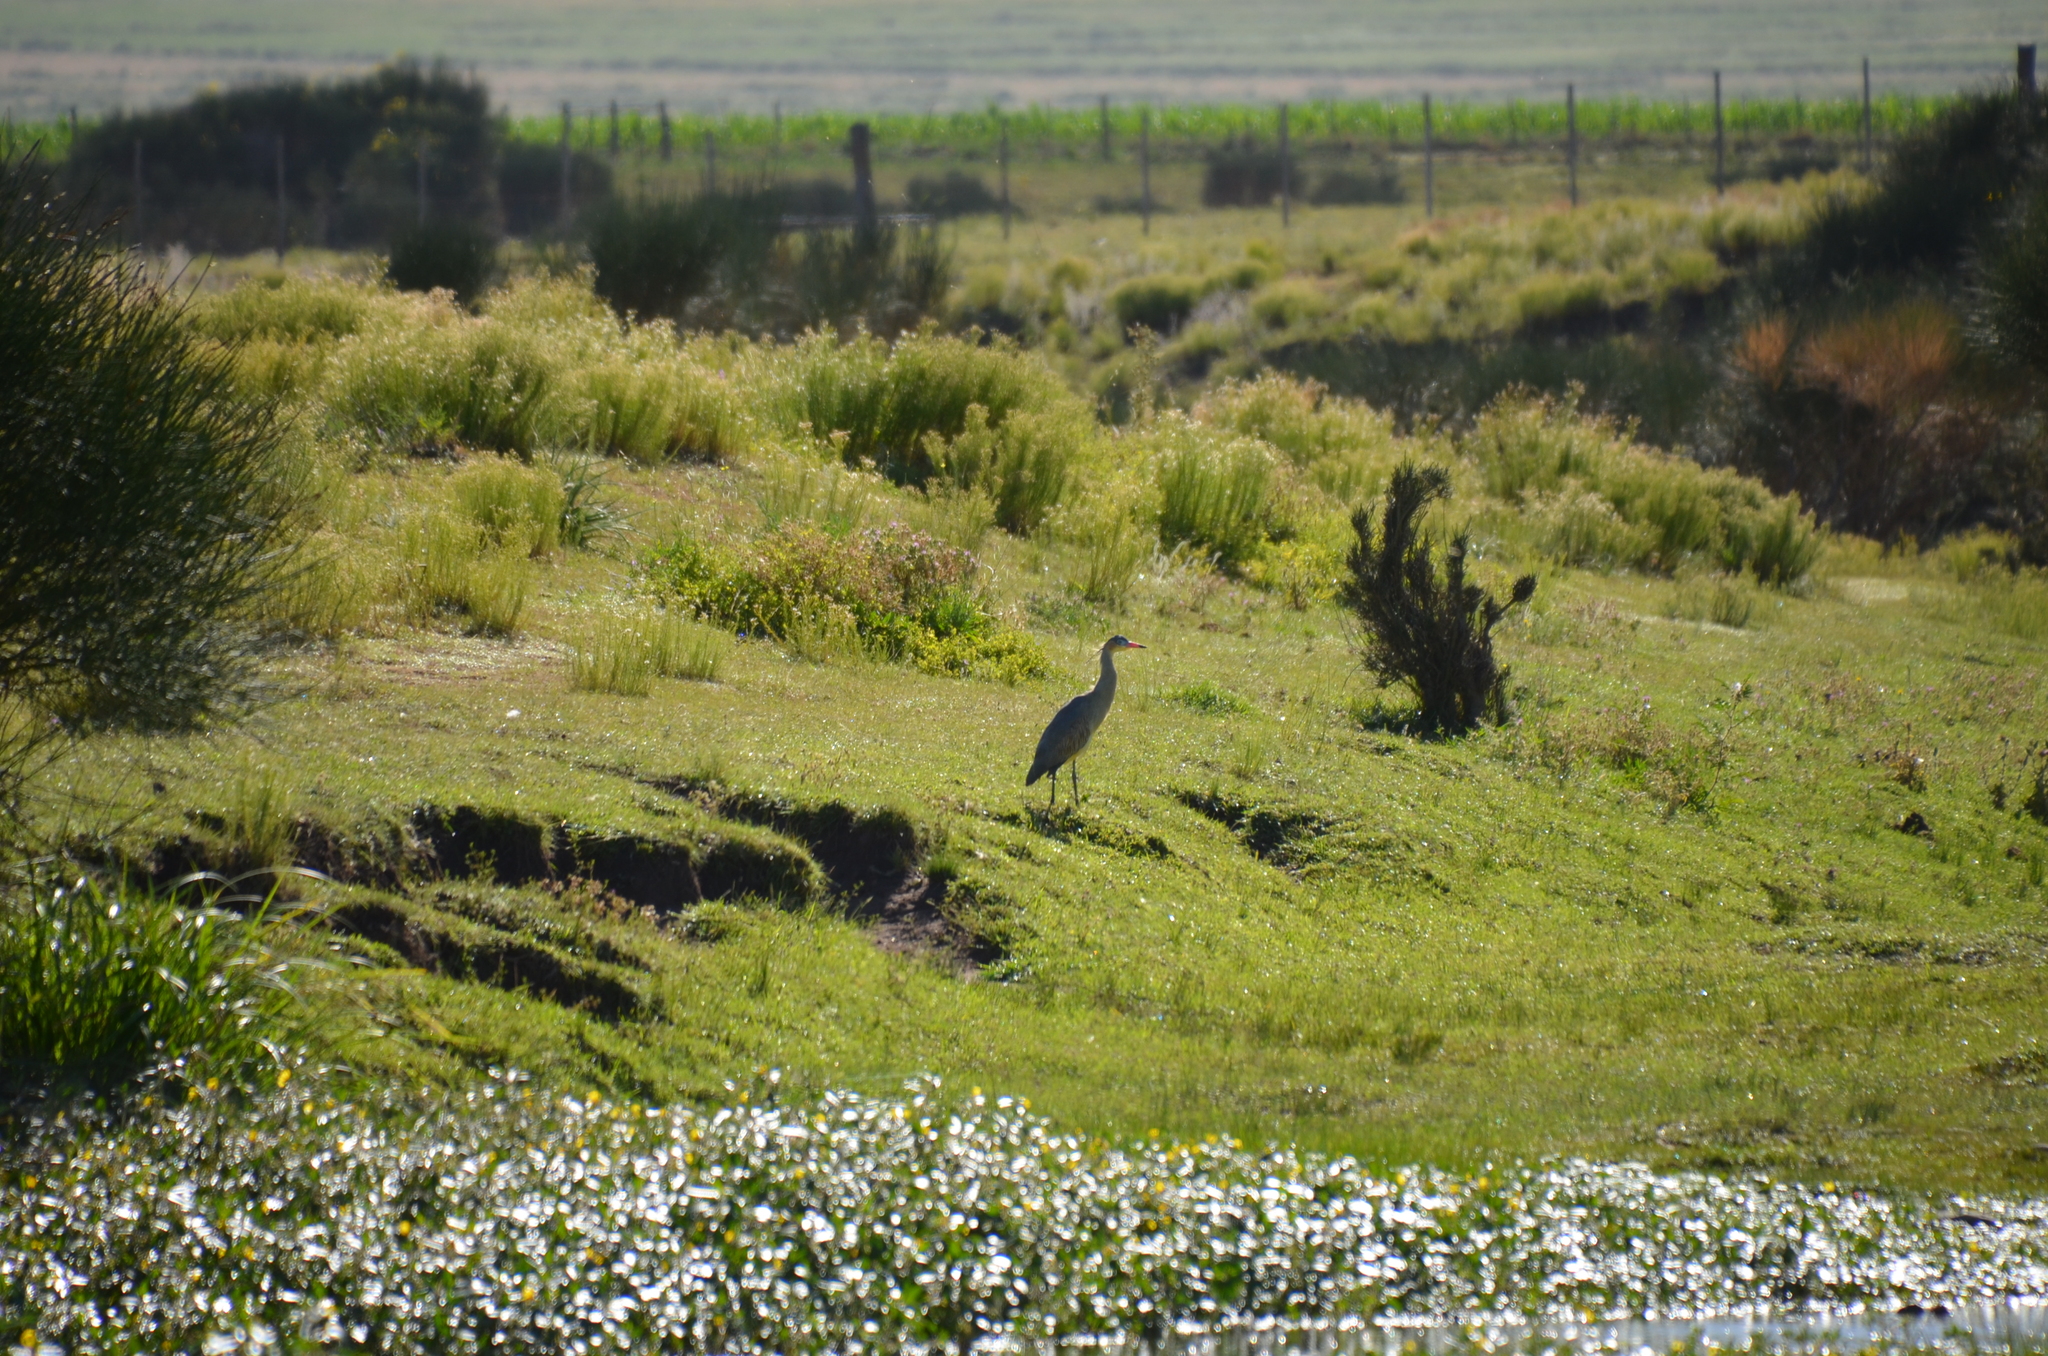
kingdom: Animalia
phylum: Chordata
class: Aves
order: Pelecaniformes
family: Ardeidae
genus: Syrigma
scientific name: Syrigma sibilatrix
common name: Whistling heron
